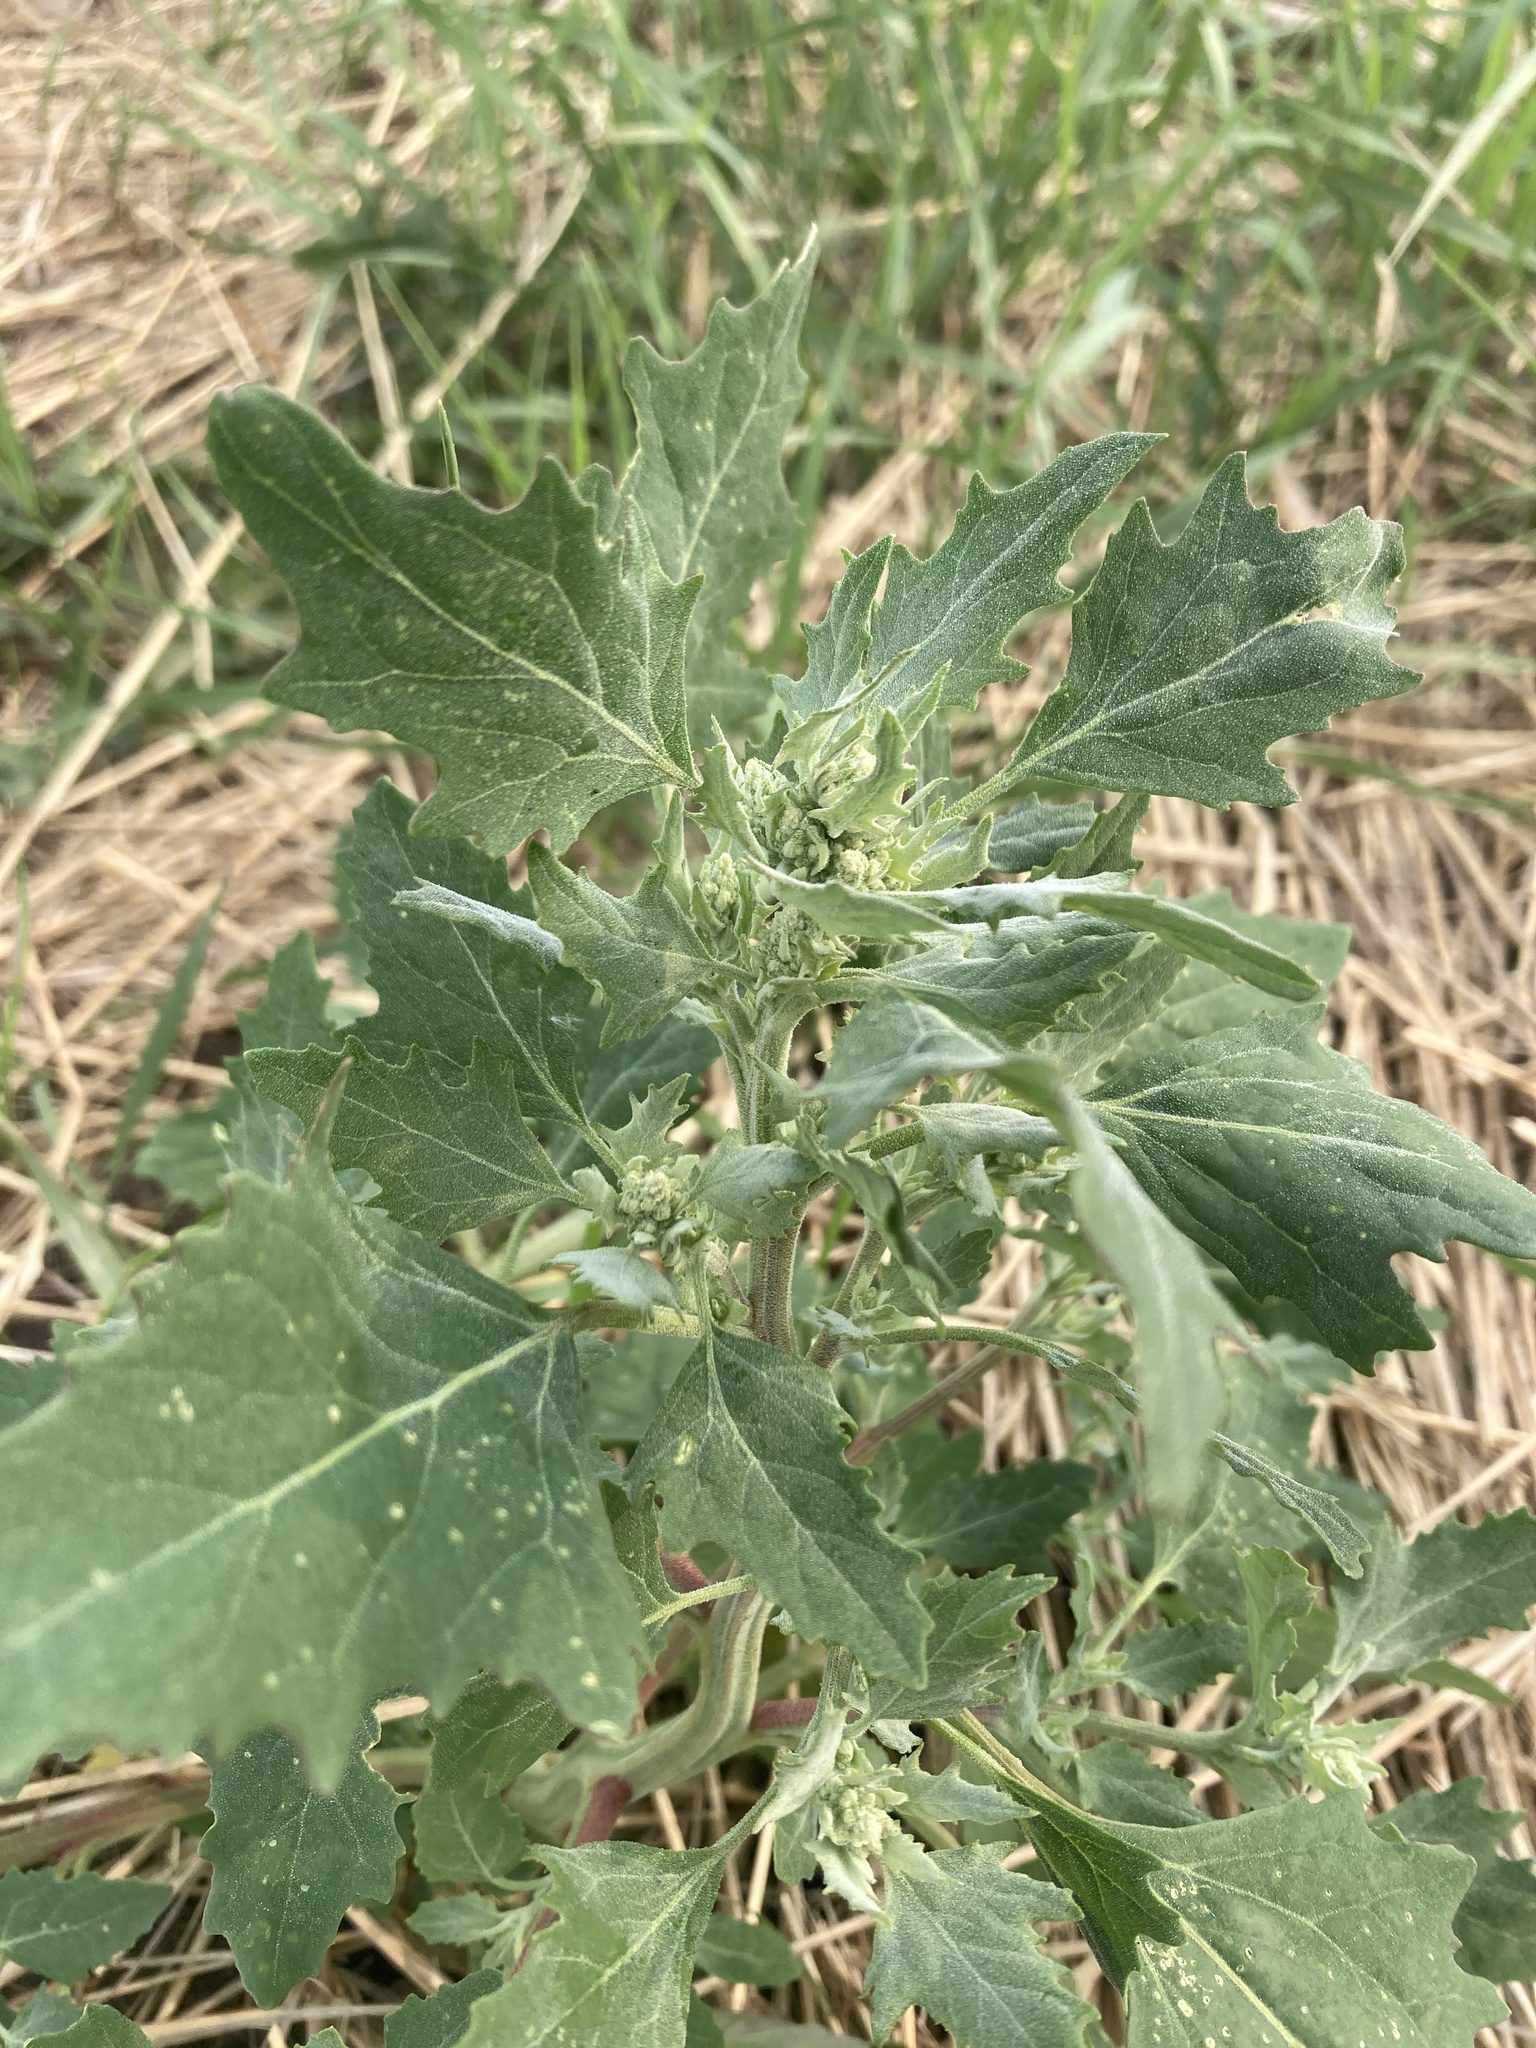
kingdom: Plantae
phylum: Tracheophyta
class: Magnoliopsida
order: Caryophyllales
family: Amaranthaceae
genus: Chenopodium
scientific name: Chenopodium album
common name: Fat-hen
